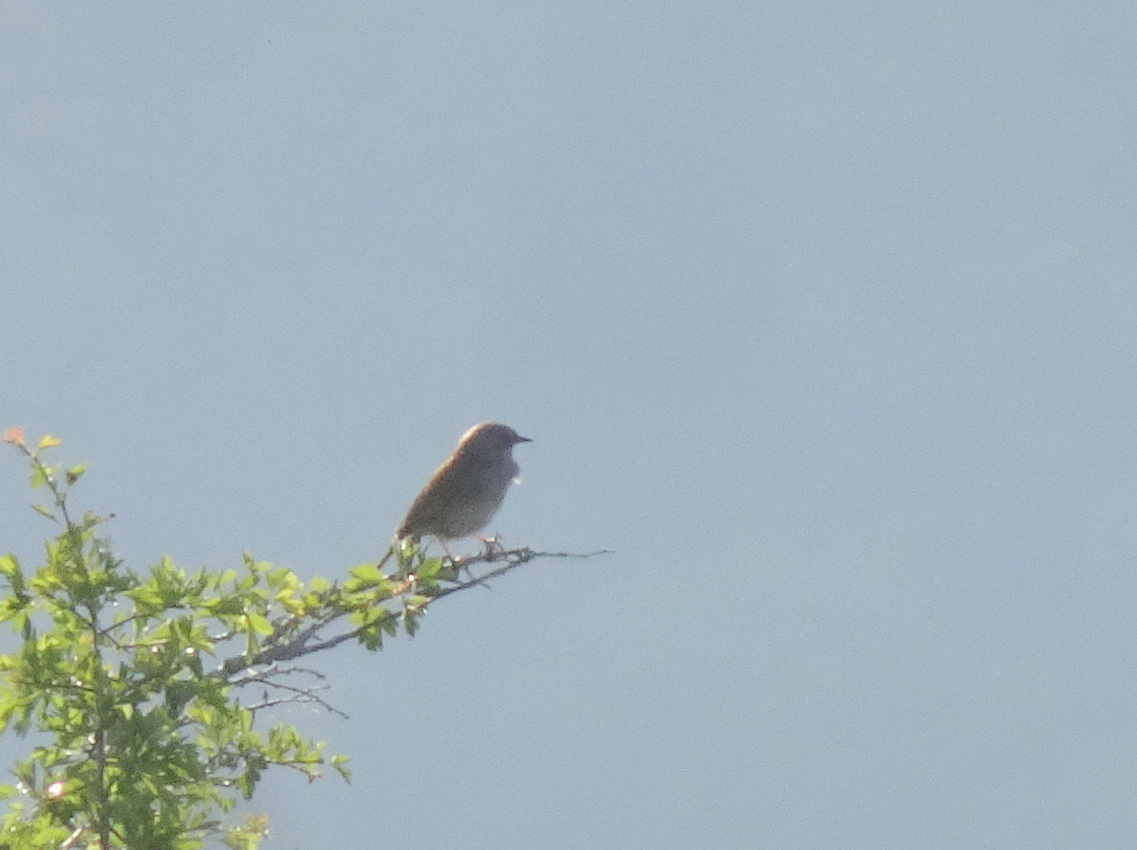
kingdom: Animalia
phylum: Chordata
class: Aves
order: Passeriformes
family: Prunellidae
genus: Prunella
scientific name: Prunella modularis
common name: Dunnock
